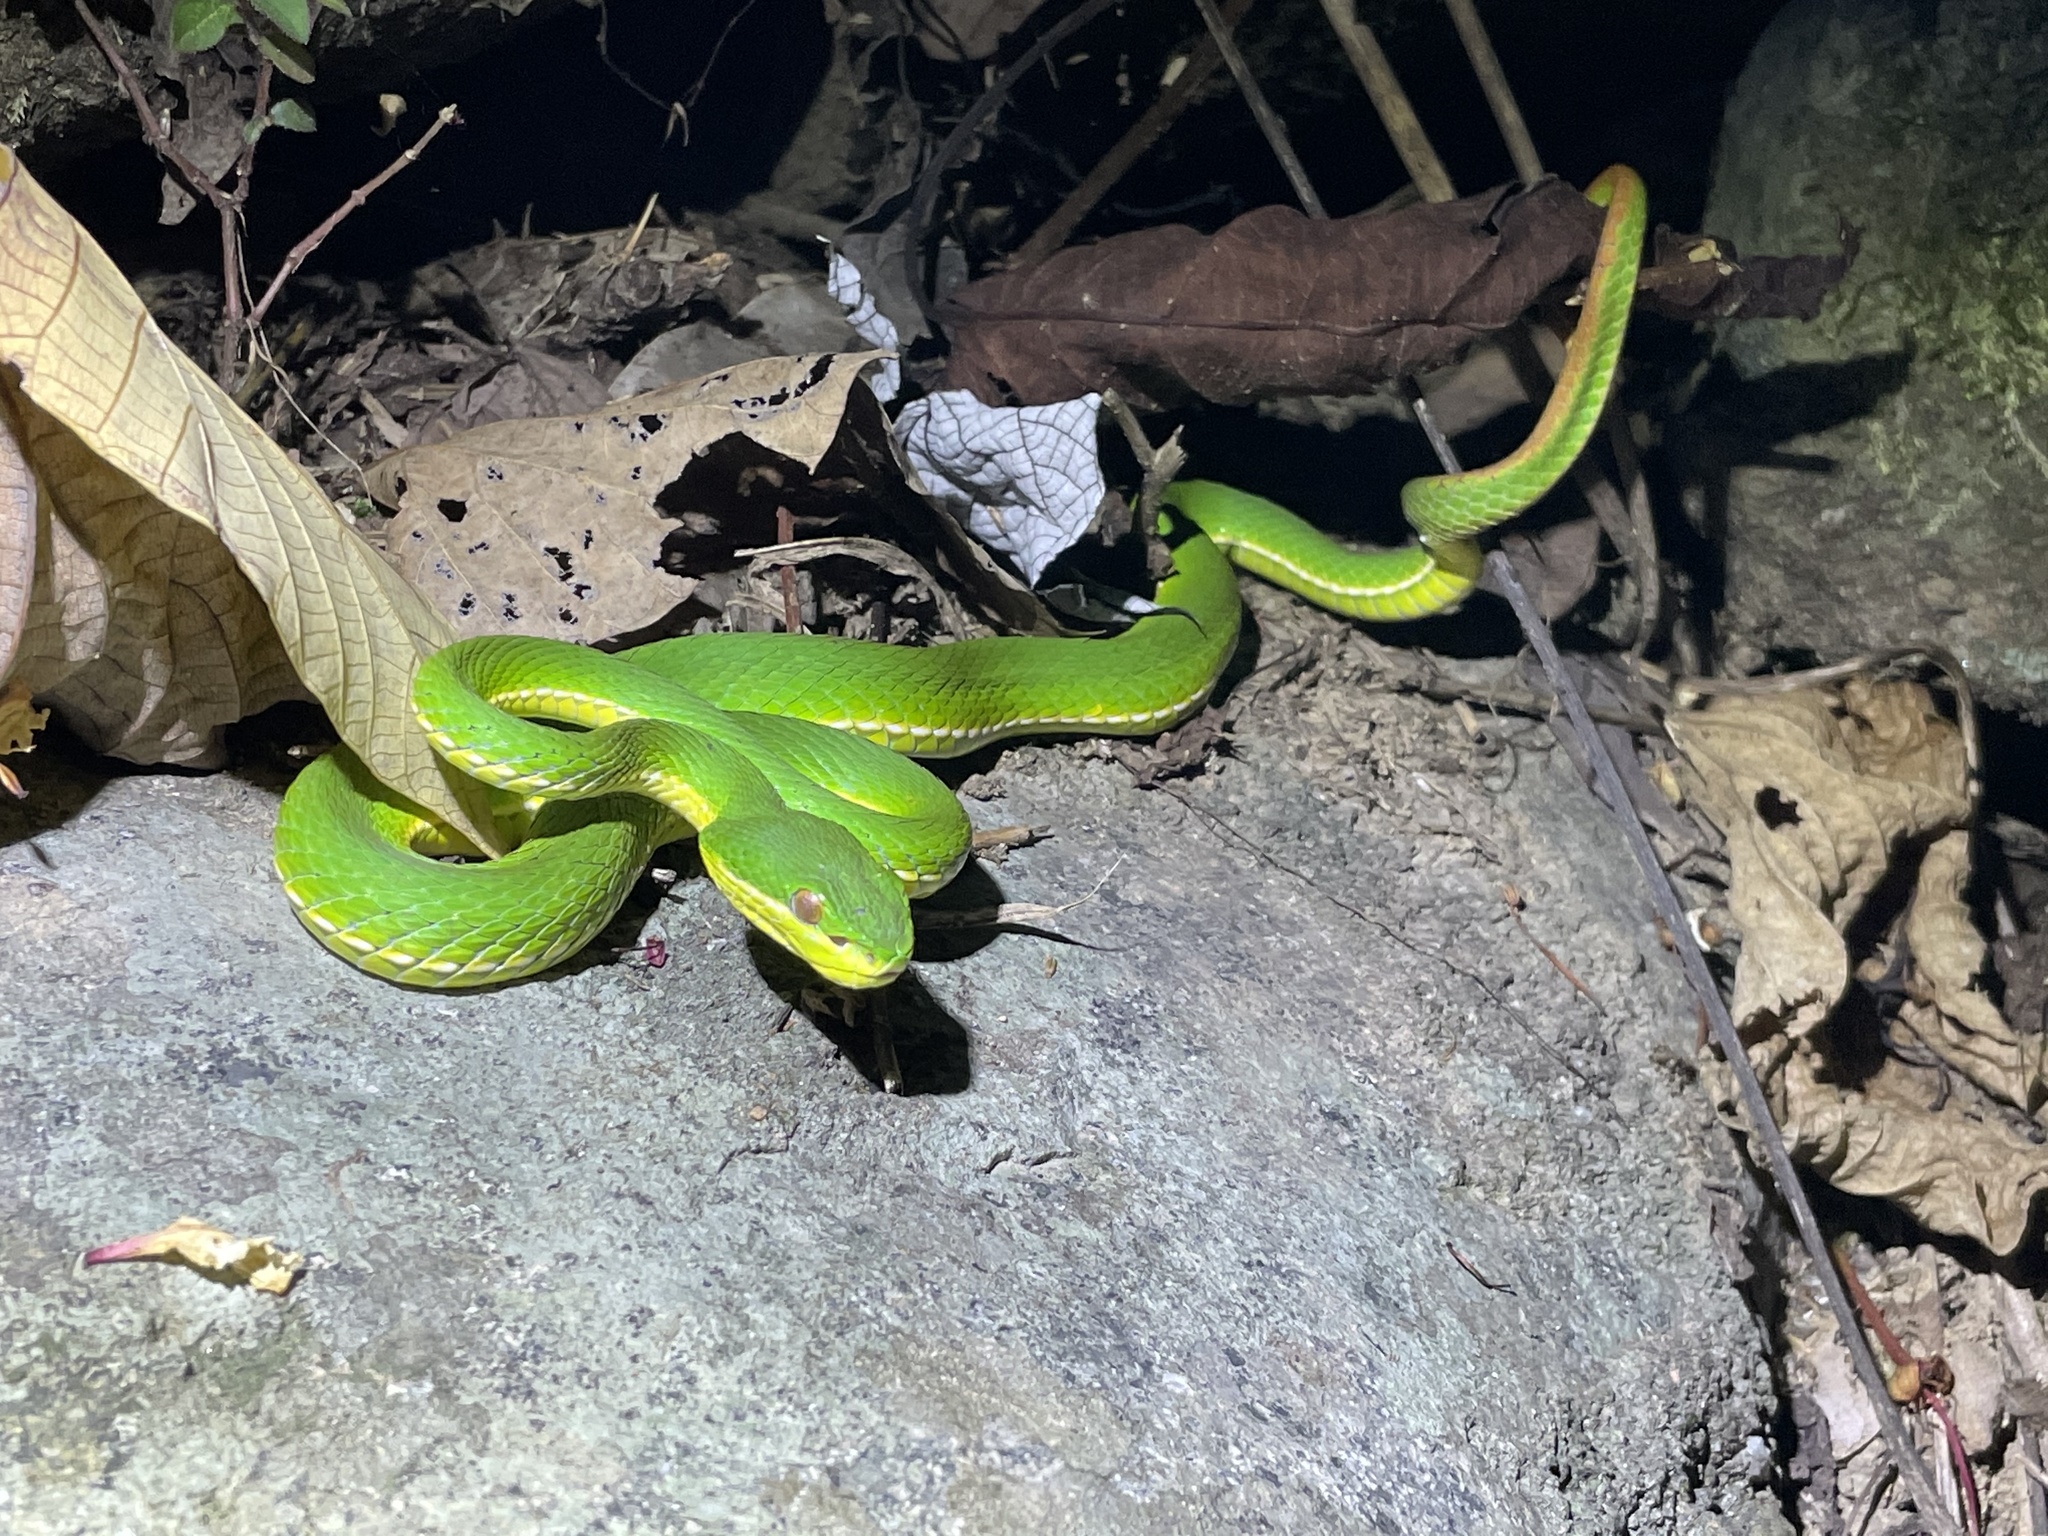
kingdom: Animalia
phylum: Chordata
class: Squamata
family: Viperidae
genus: Trimeresurus
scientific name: Trimeresurus albolabris
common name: White-lipped pitviper
